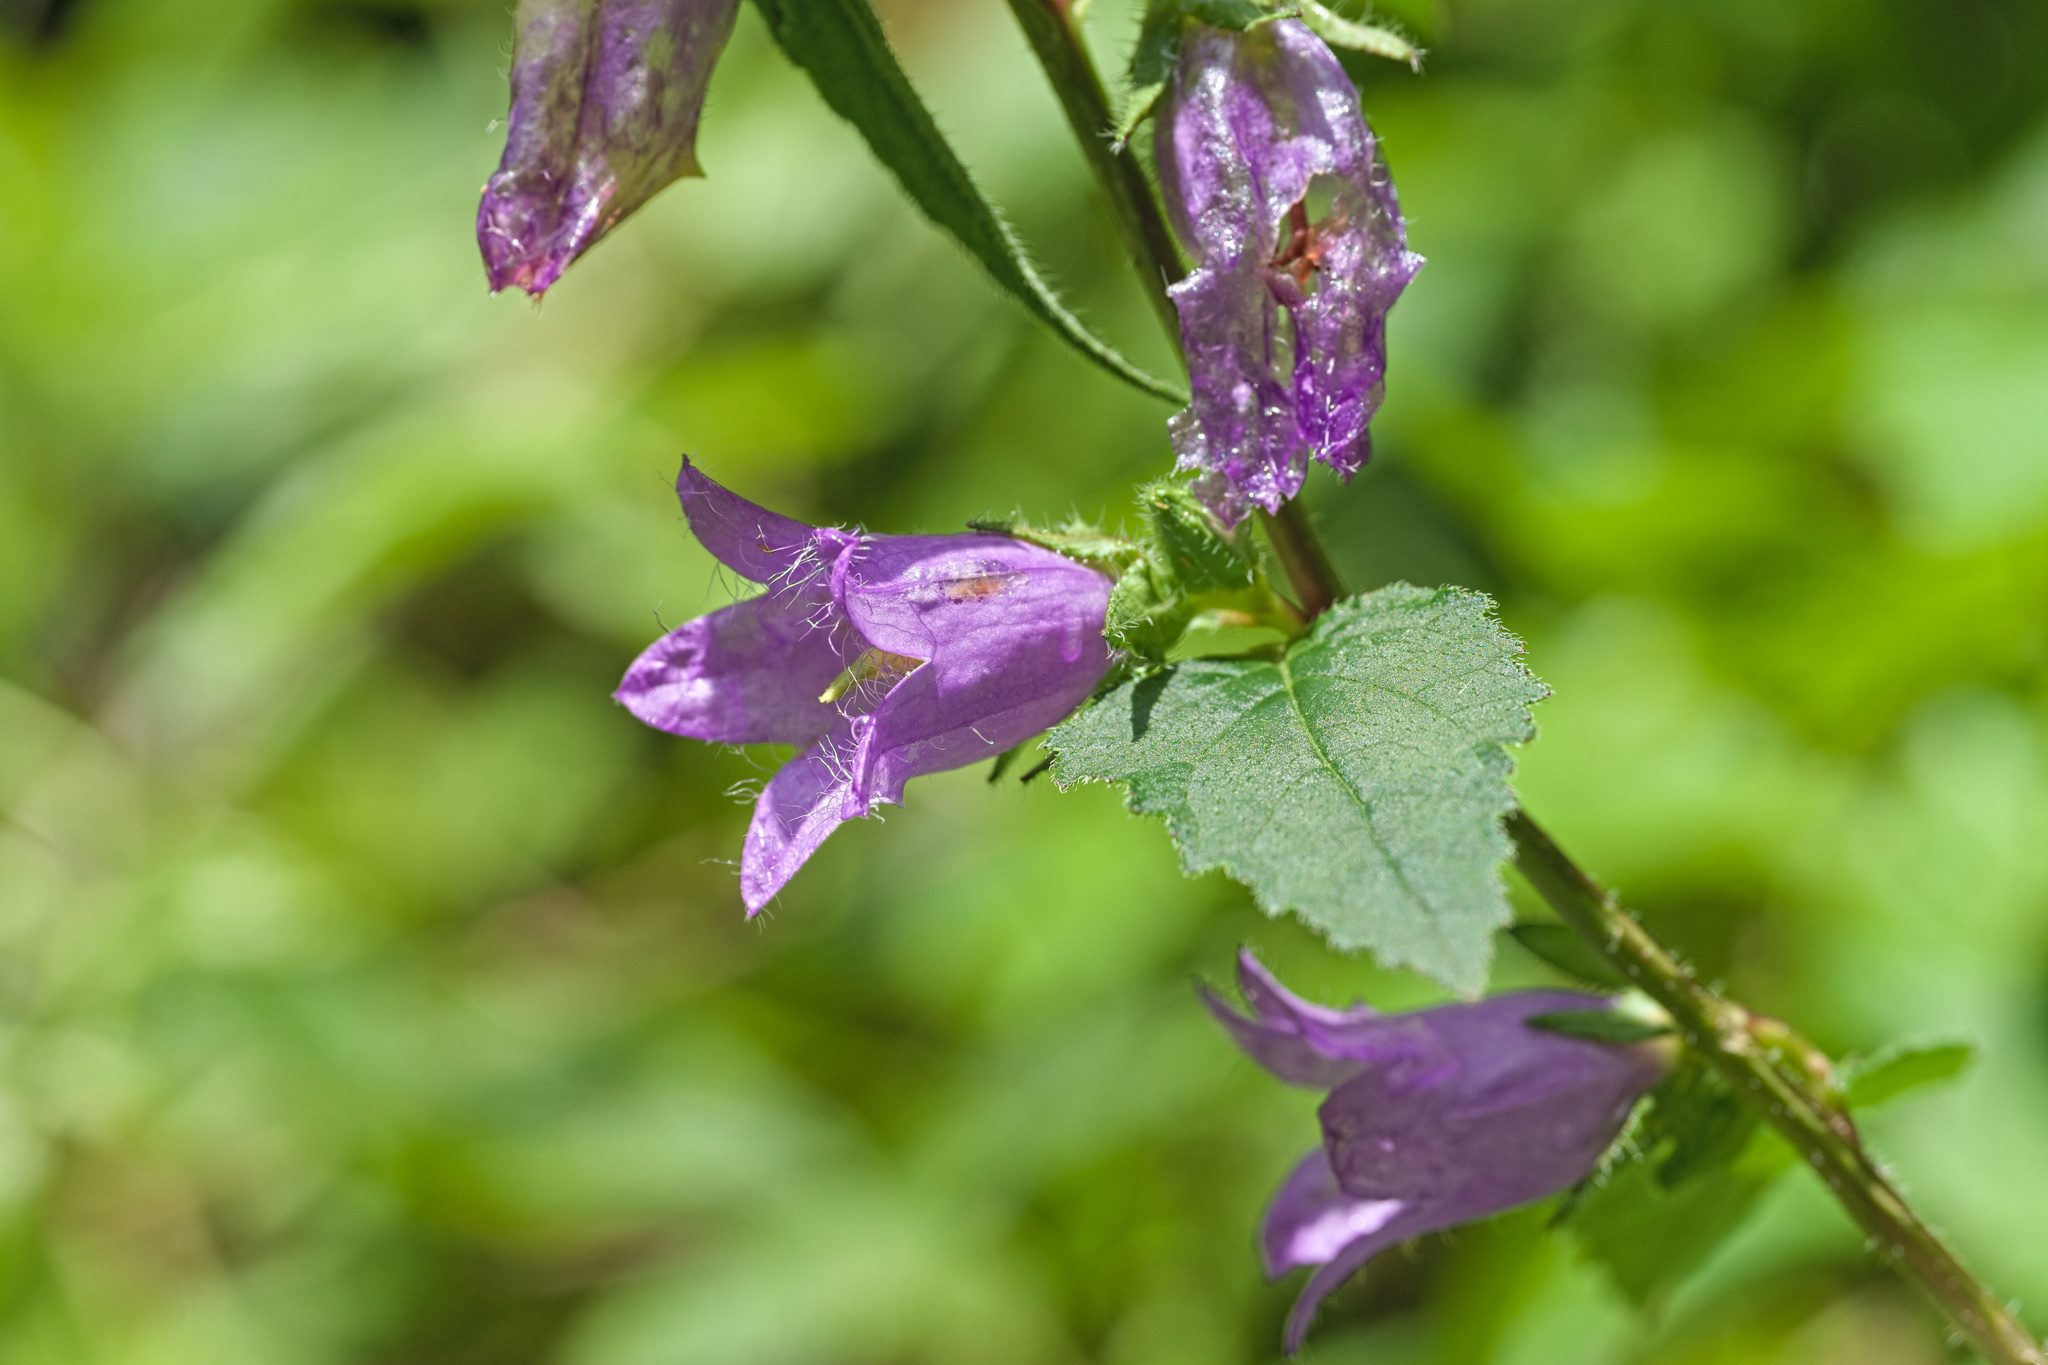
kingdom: Plantae
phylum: Tracheophyta
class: Magnoliopsida
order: Asterales
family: Campanulaceae
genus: Campanula
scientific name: Campanula trachelium
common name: Nettle-leaved bellflower
